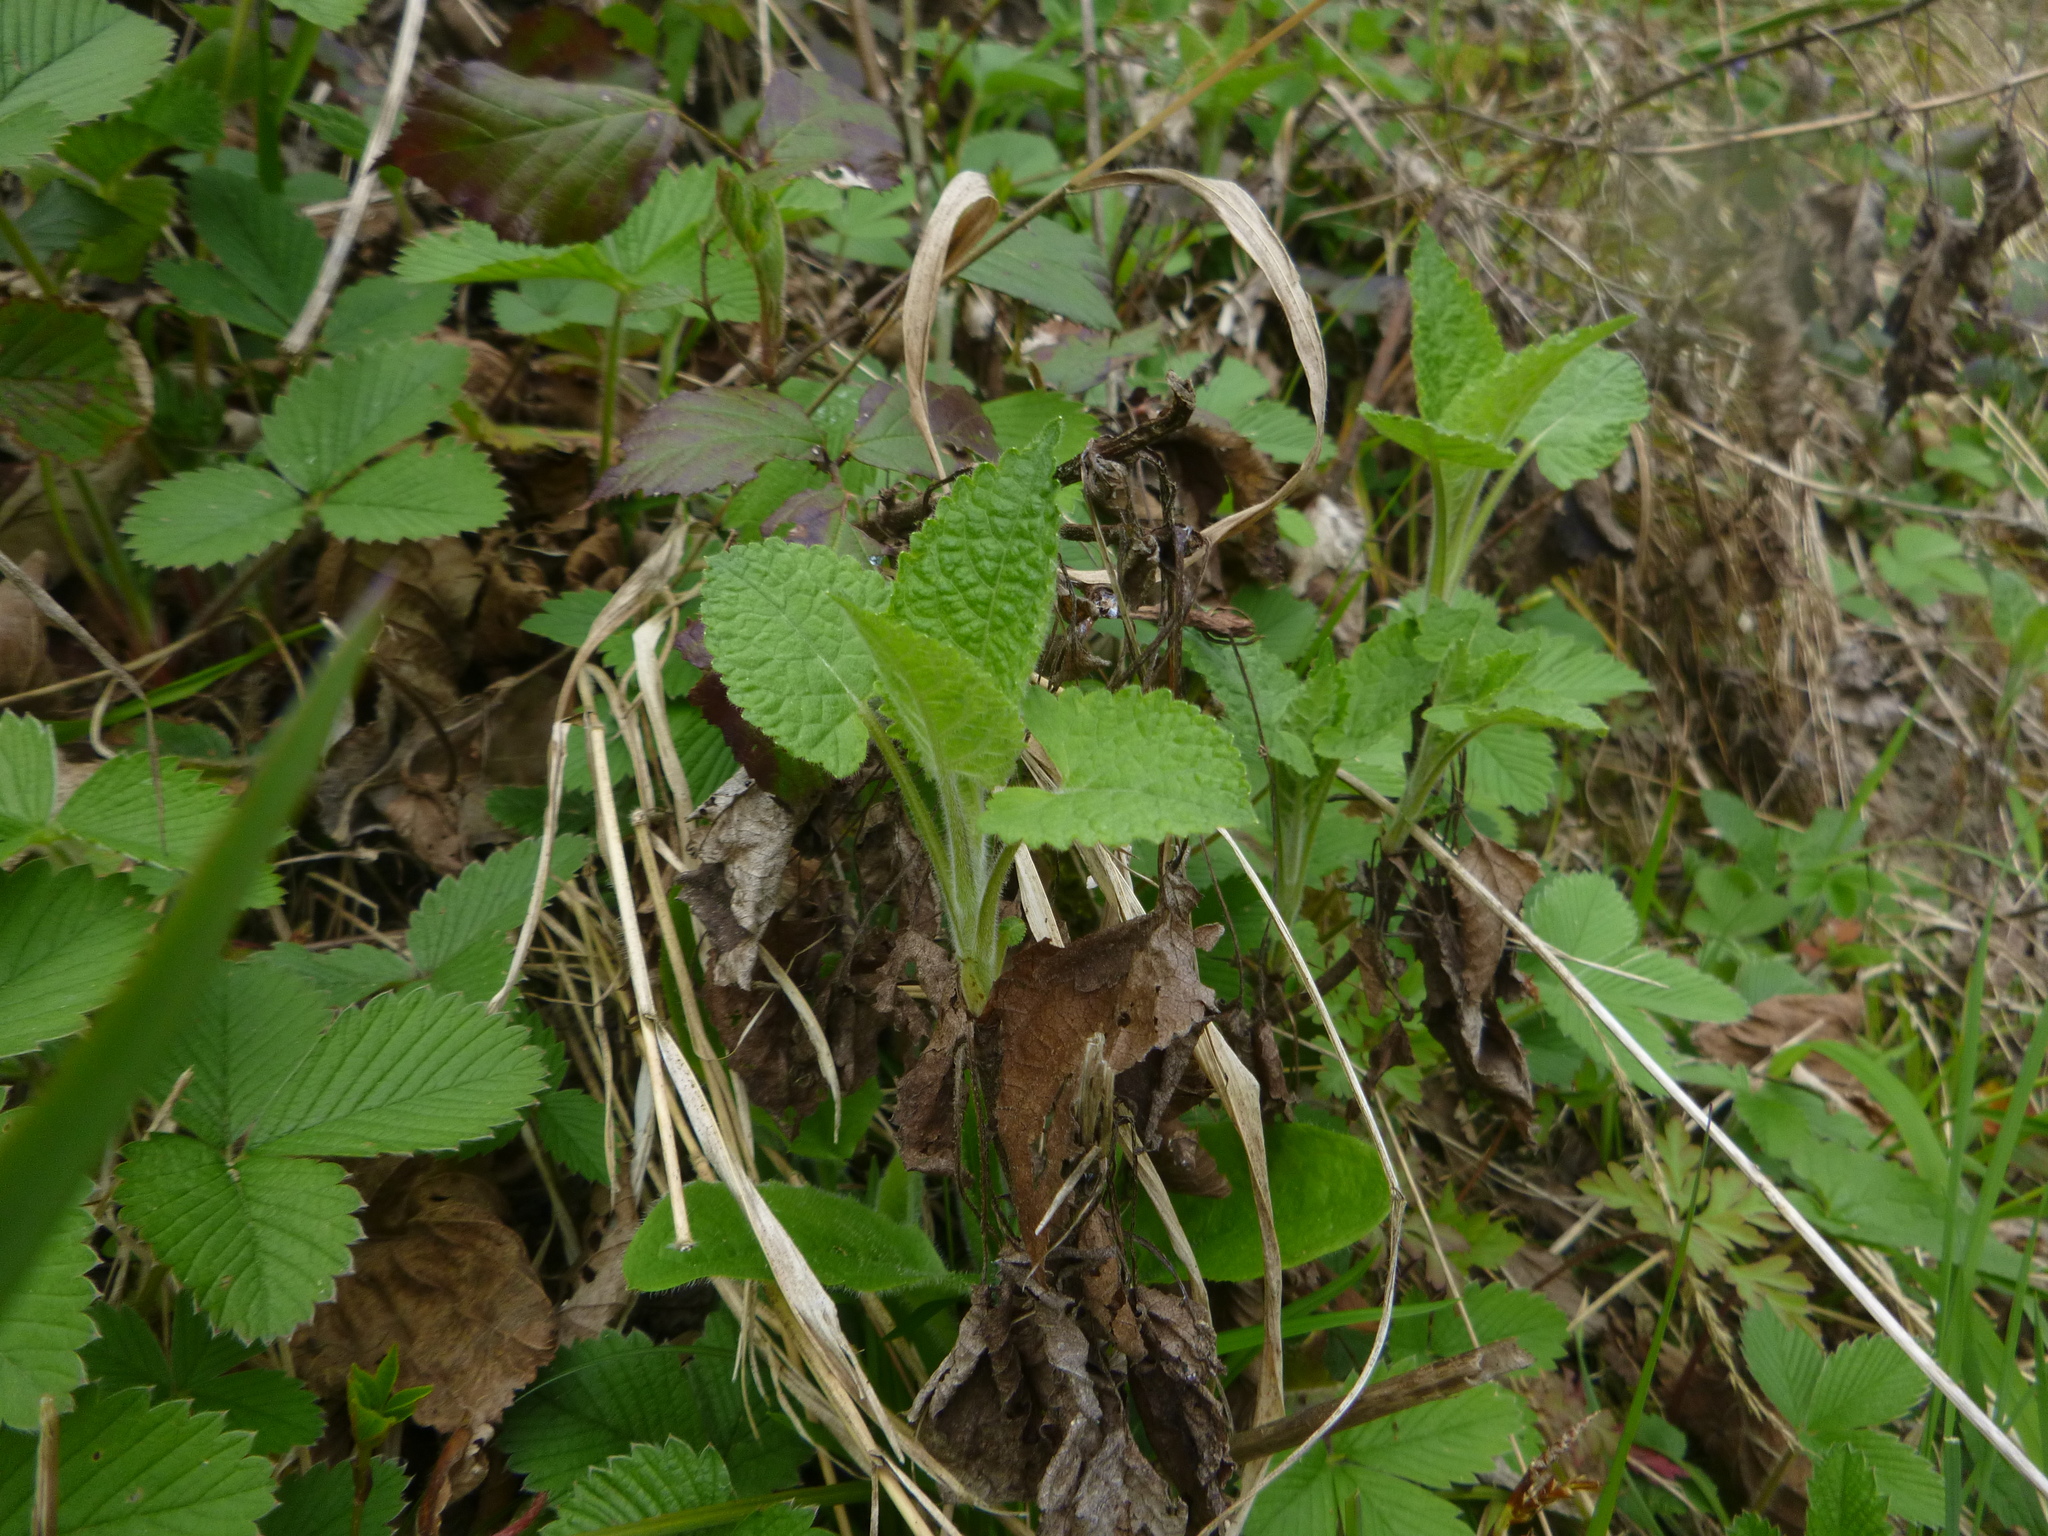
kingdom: Plantae
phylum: Tracheophyta
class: Magnoliopsida
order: Lamiales
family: Lamiaceae
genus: Salvia
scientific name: Salvia glutinosa
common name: Sticky clary
